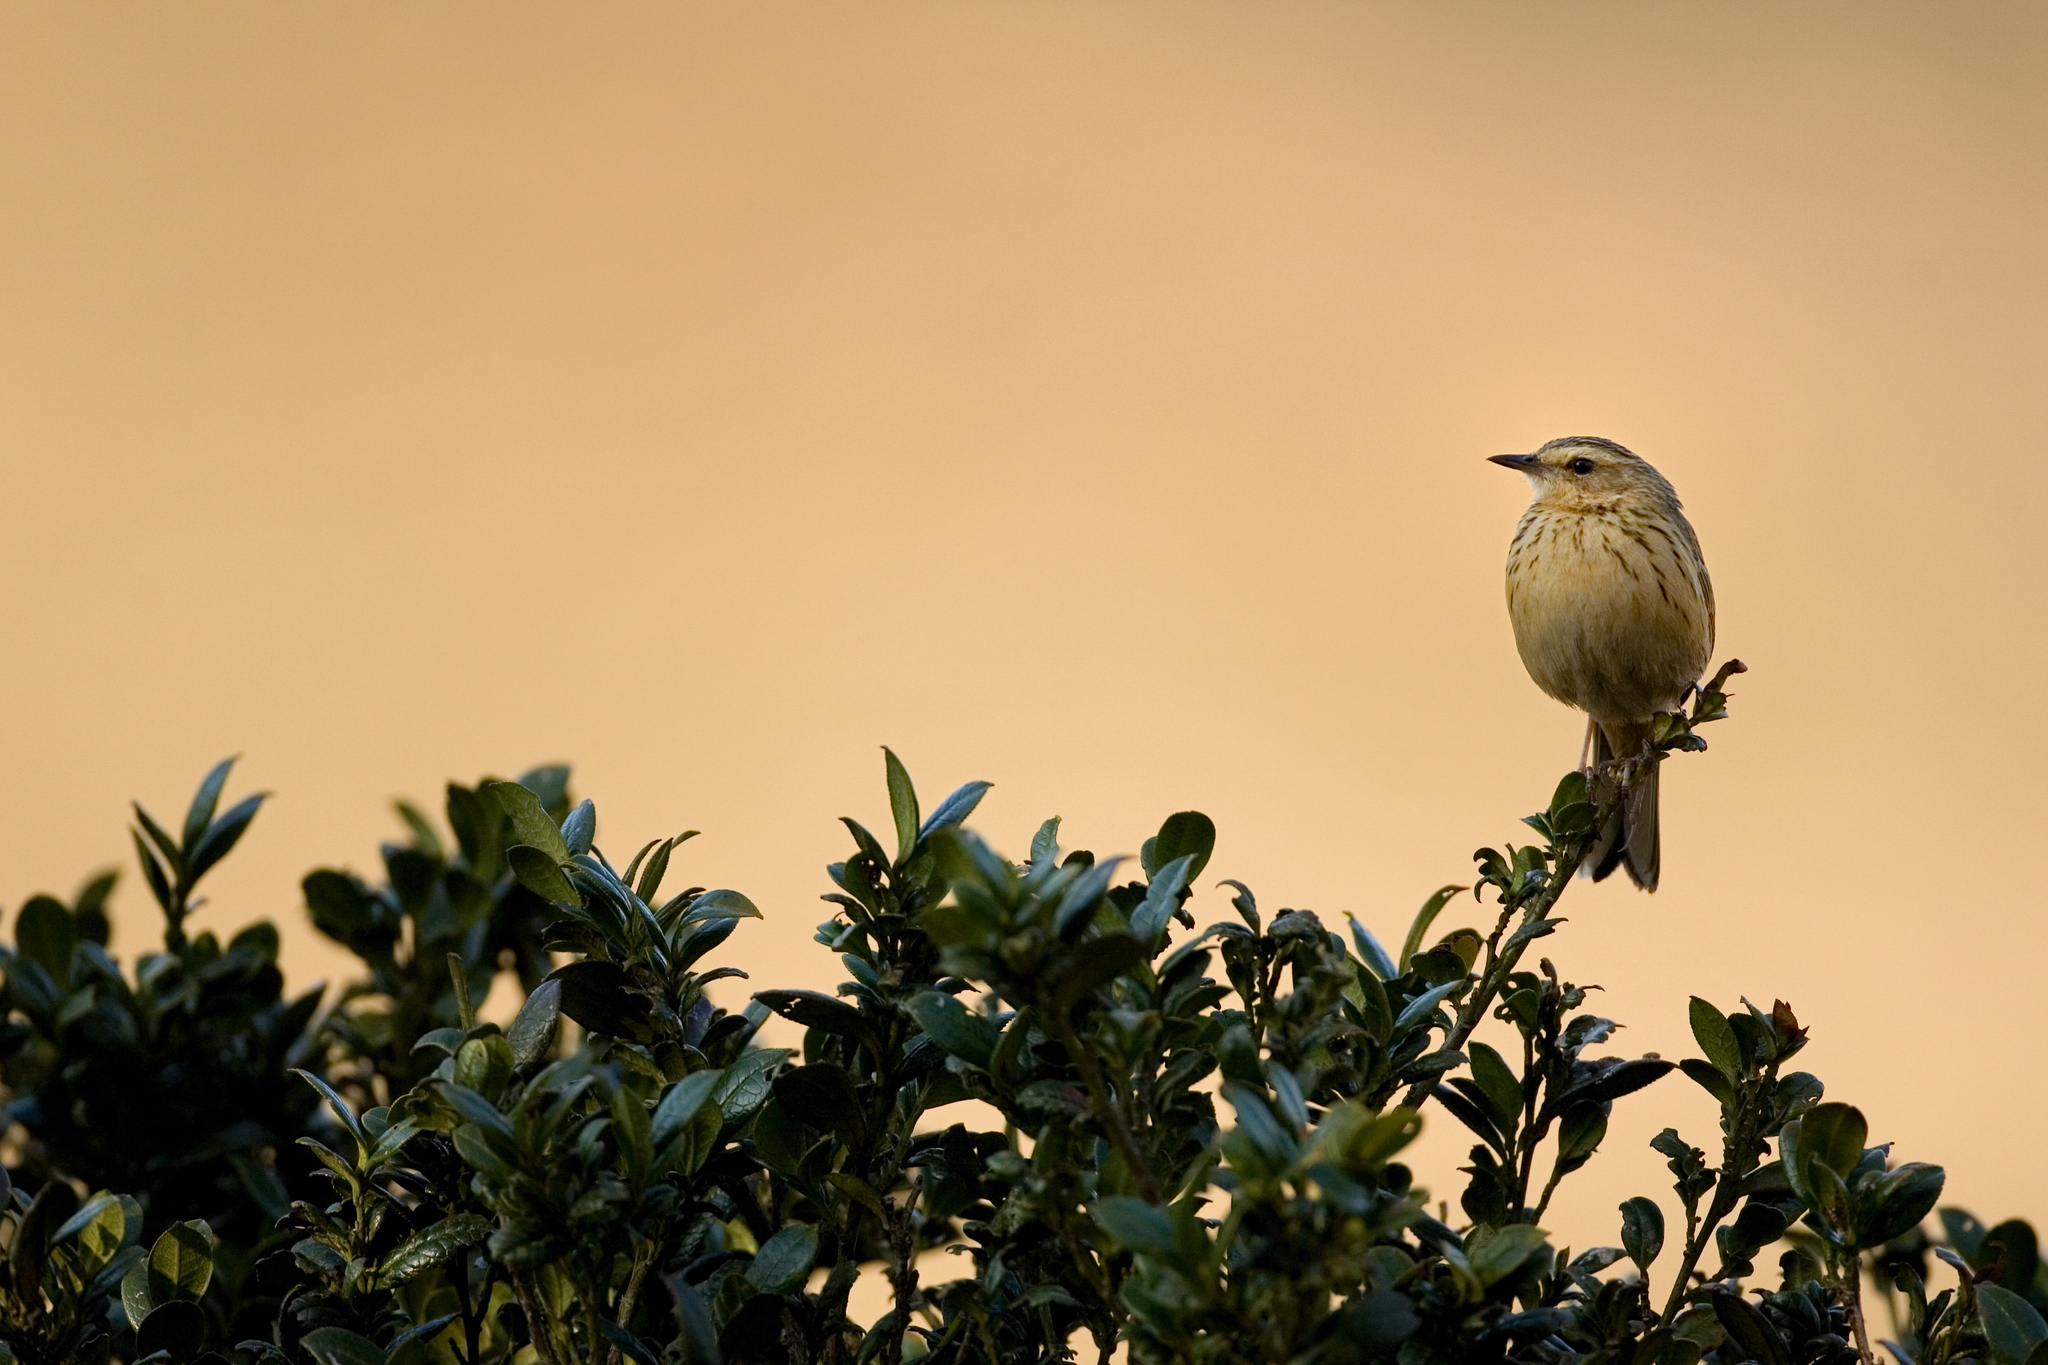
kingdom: Animalia
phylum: Chordata
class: Aves
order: Passeriformes
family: Motacillidae
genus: Anthus
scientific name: Anthus nilghiriensis
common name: Nilgiri pipit
